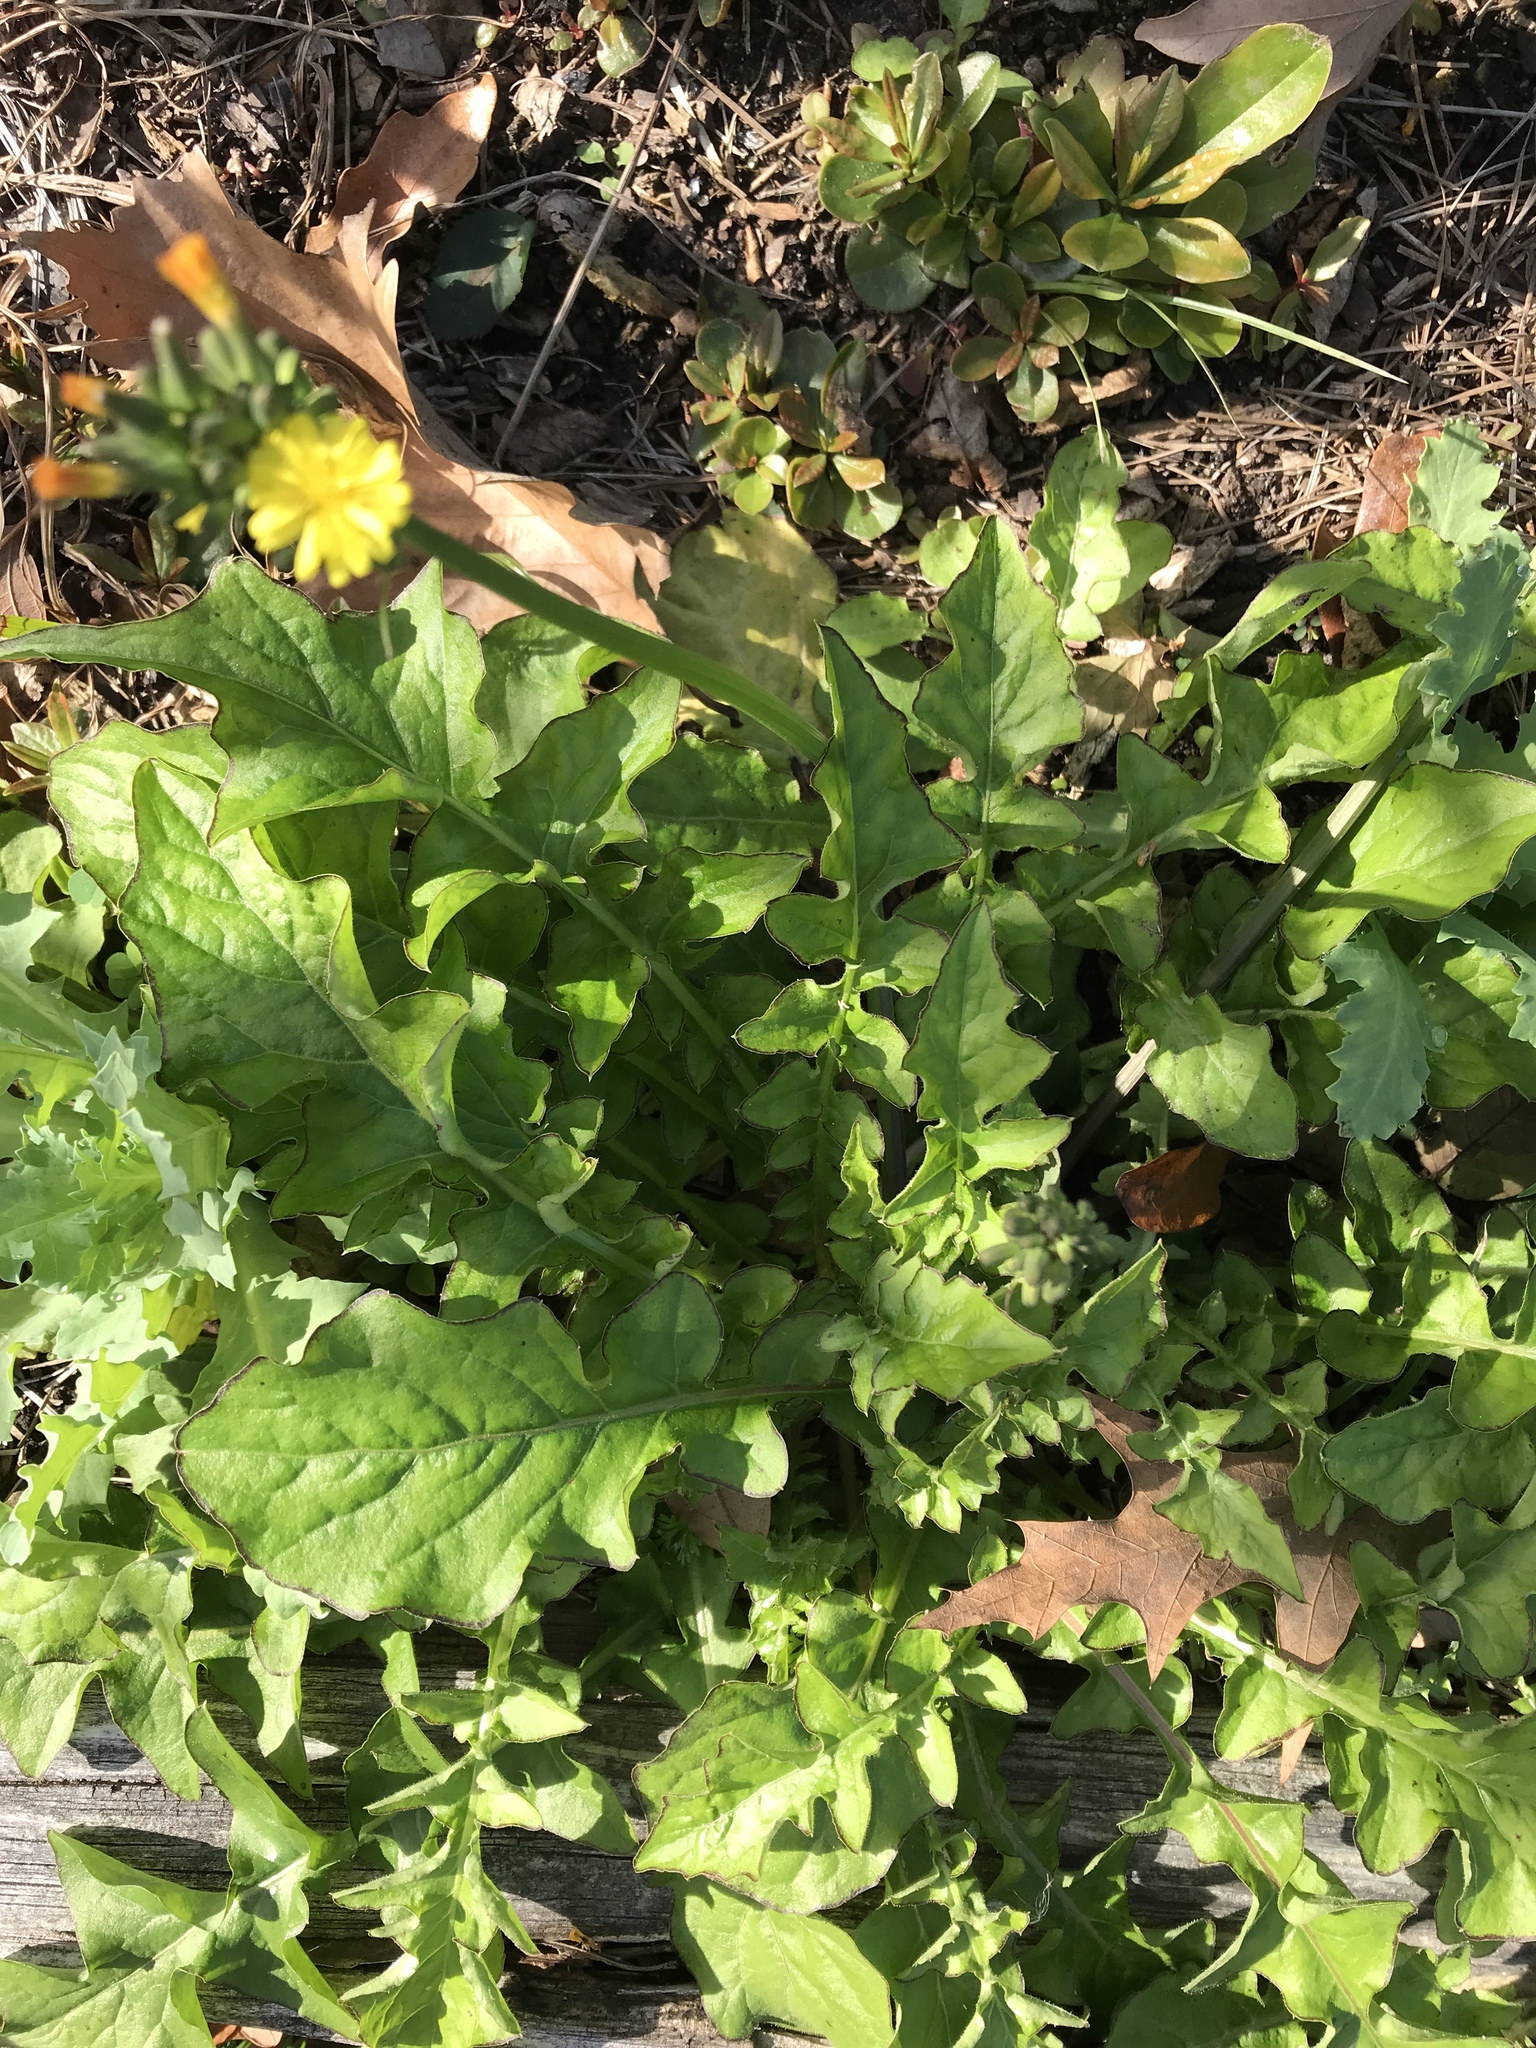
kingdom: Plantae
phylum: Tracheophyta
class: Magnoliopsida
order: Asterales
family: Asteraceae
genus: Youngia
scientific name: Youngia japonica
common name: Oriental false hawksbeard
